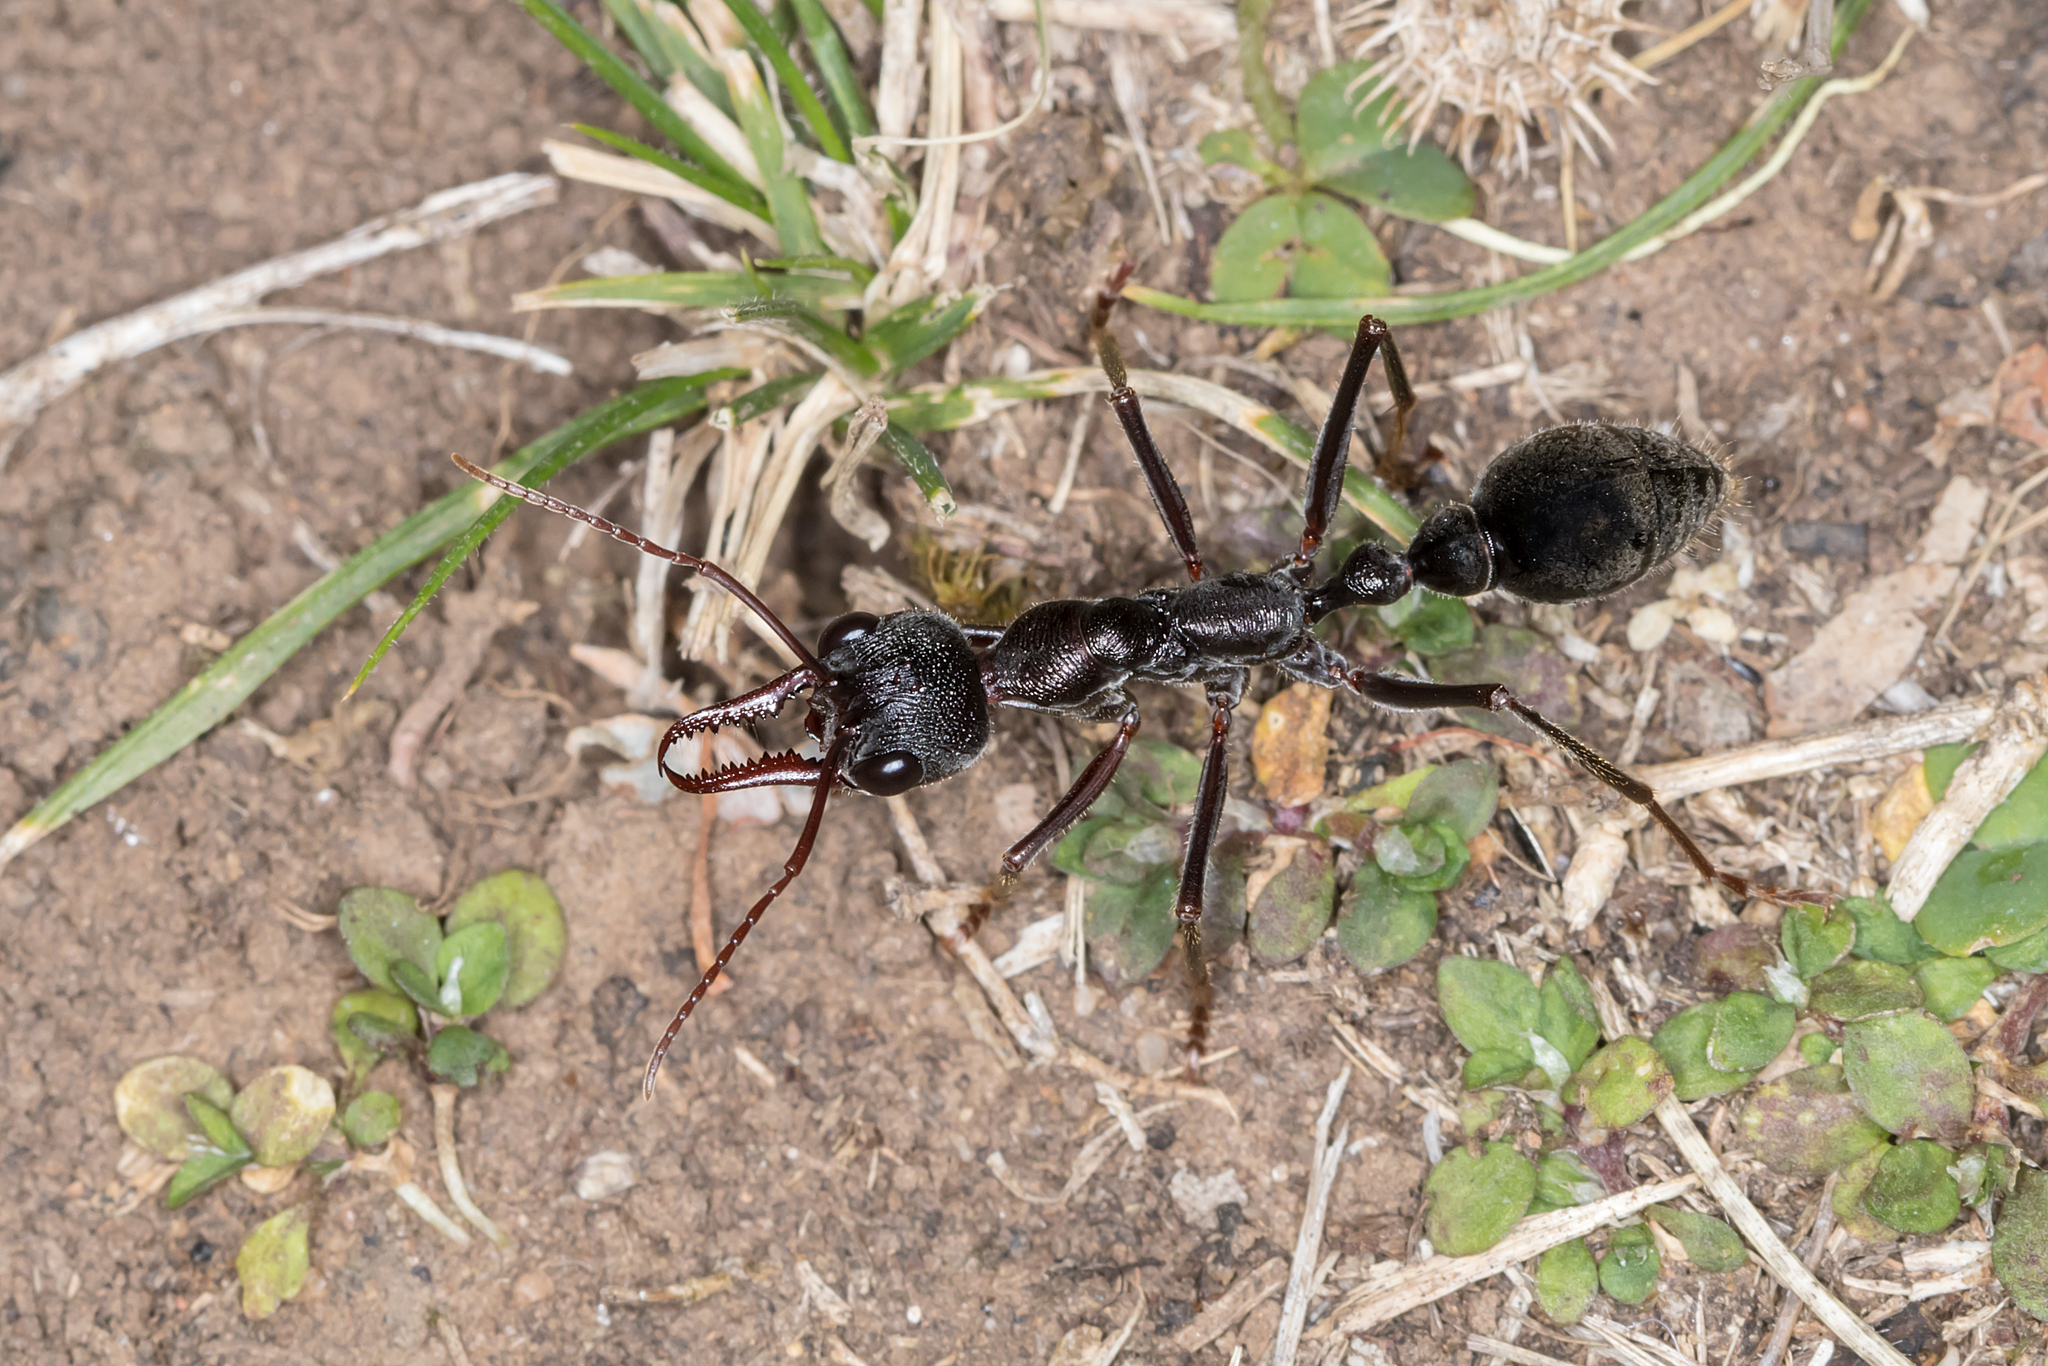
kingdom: Animalia
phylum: Arthropoda
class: Insecta
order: Hymenoptera
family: Formicidae
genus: Myrmecia
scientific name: Myrmecia pyriformis
